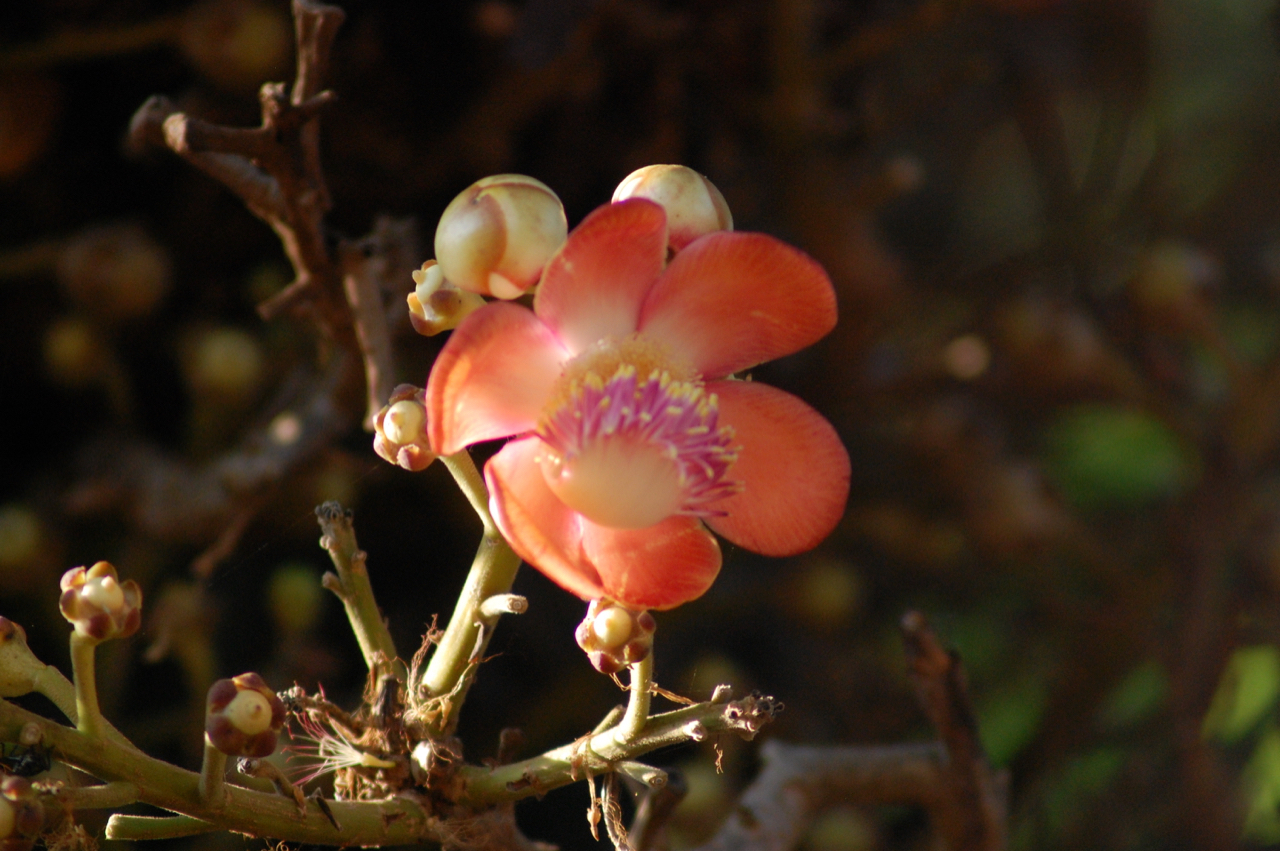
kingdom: Plantae
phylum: Tracheophyta
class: Magnoliopsida
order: Ericales
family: Lecythidaceae
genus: Couroupita
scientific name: Couroupita guianensis
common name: Cannonball tree
